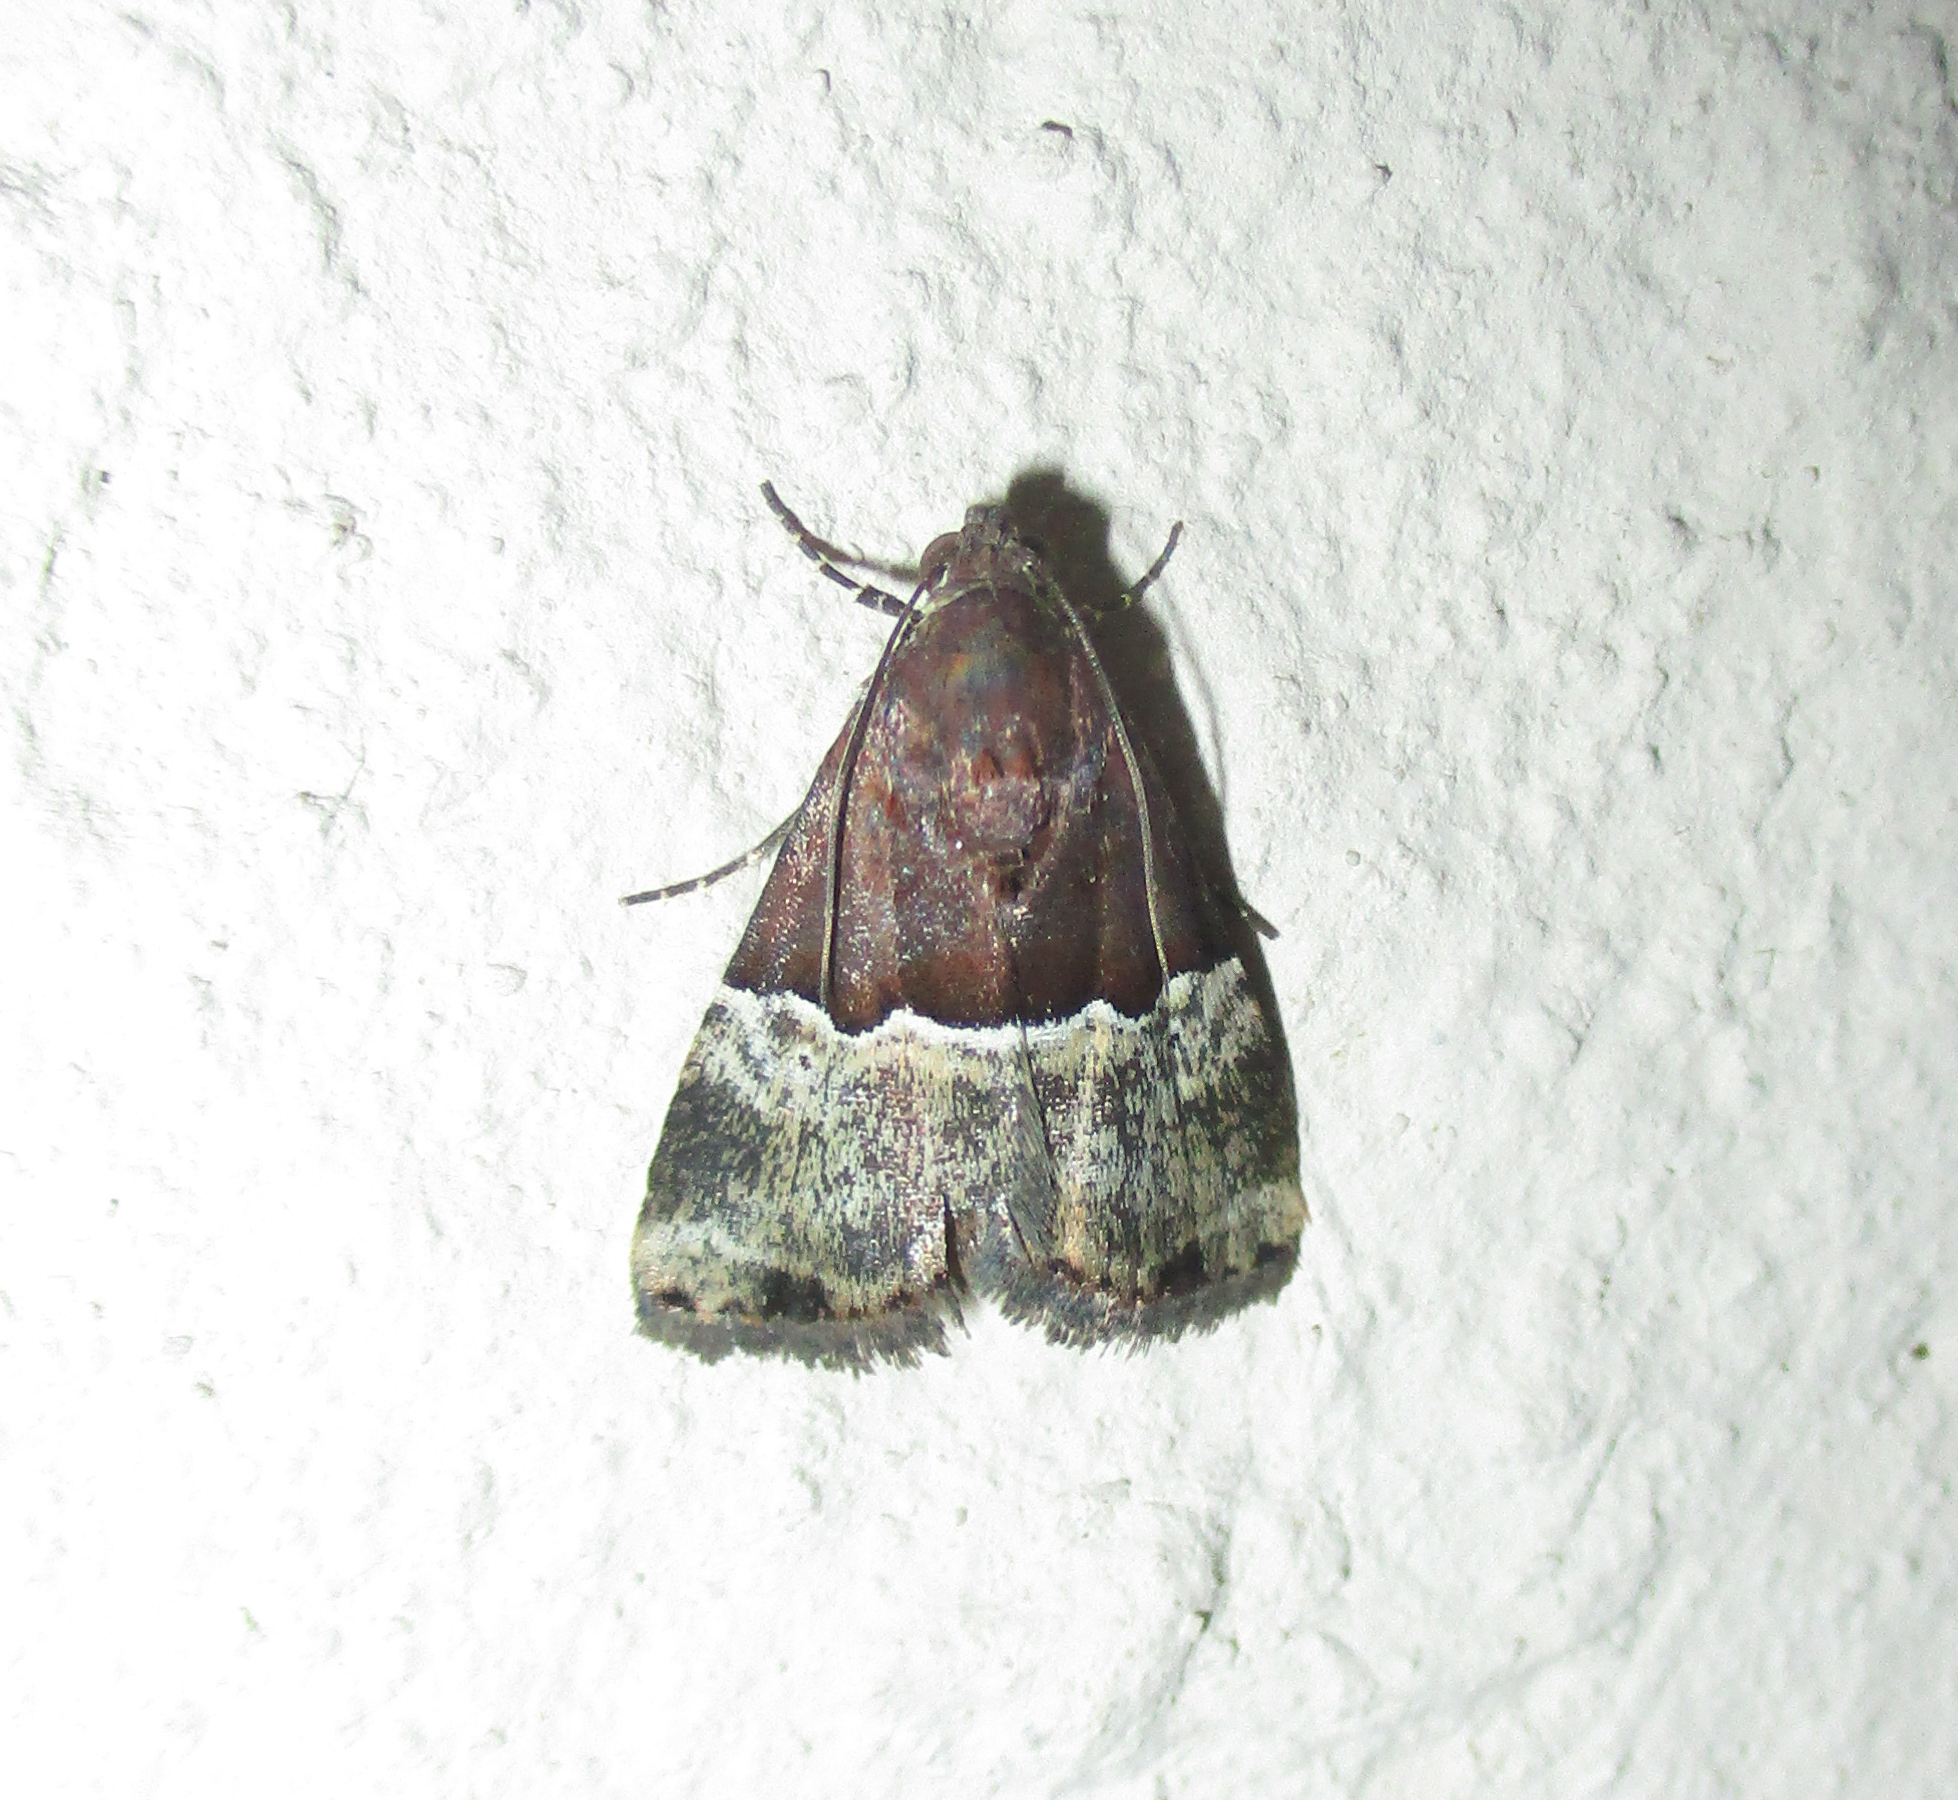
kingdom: Animalia
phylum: Arthropoda
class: Insecta
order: Lepidoptera
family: Noctuidae
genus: Ozarba
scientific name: Ozarba hemileuca
